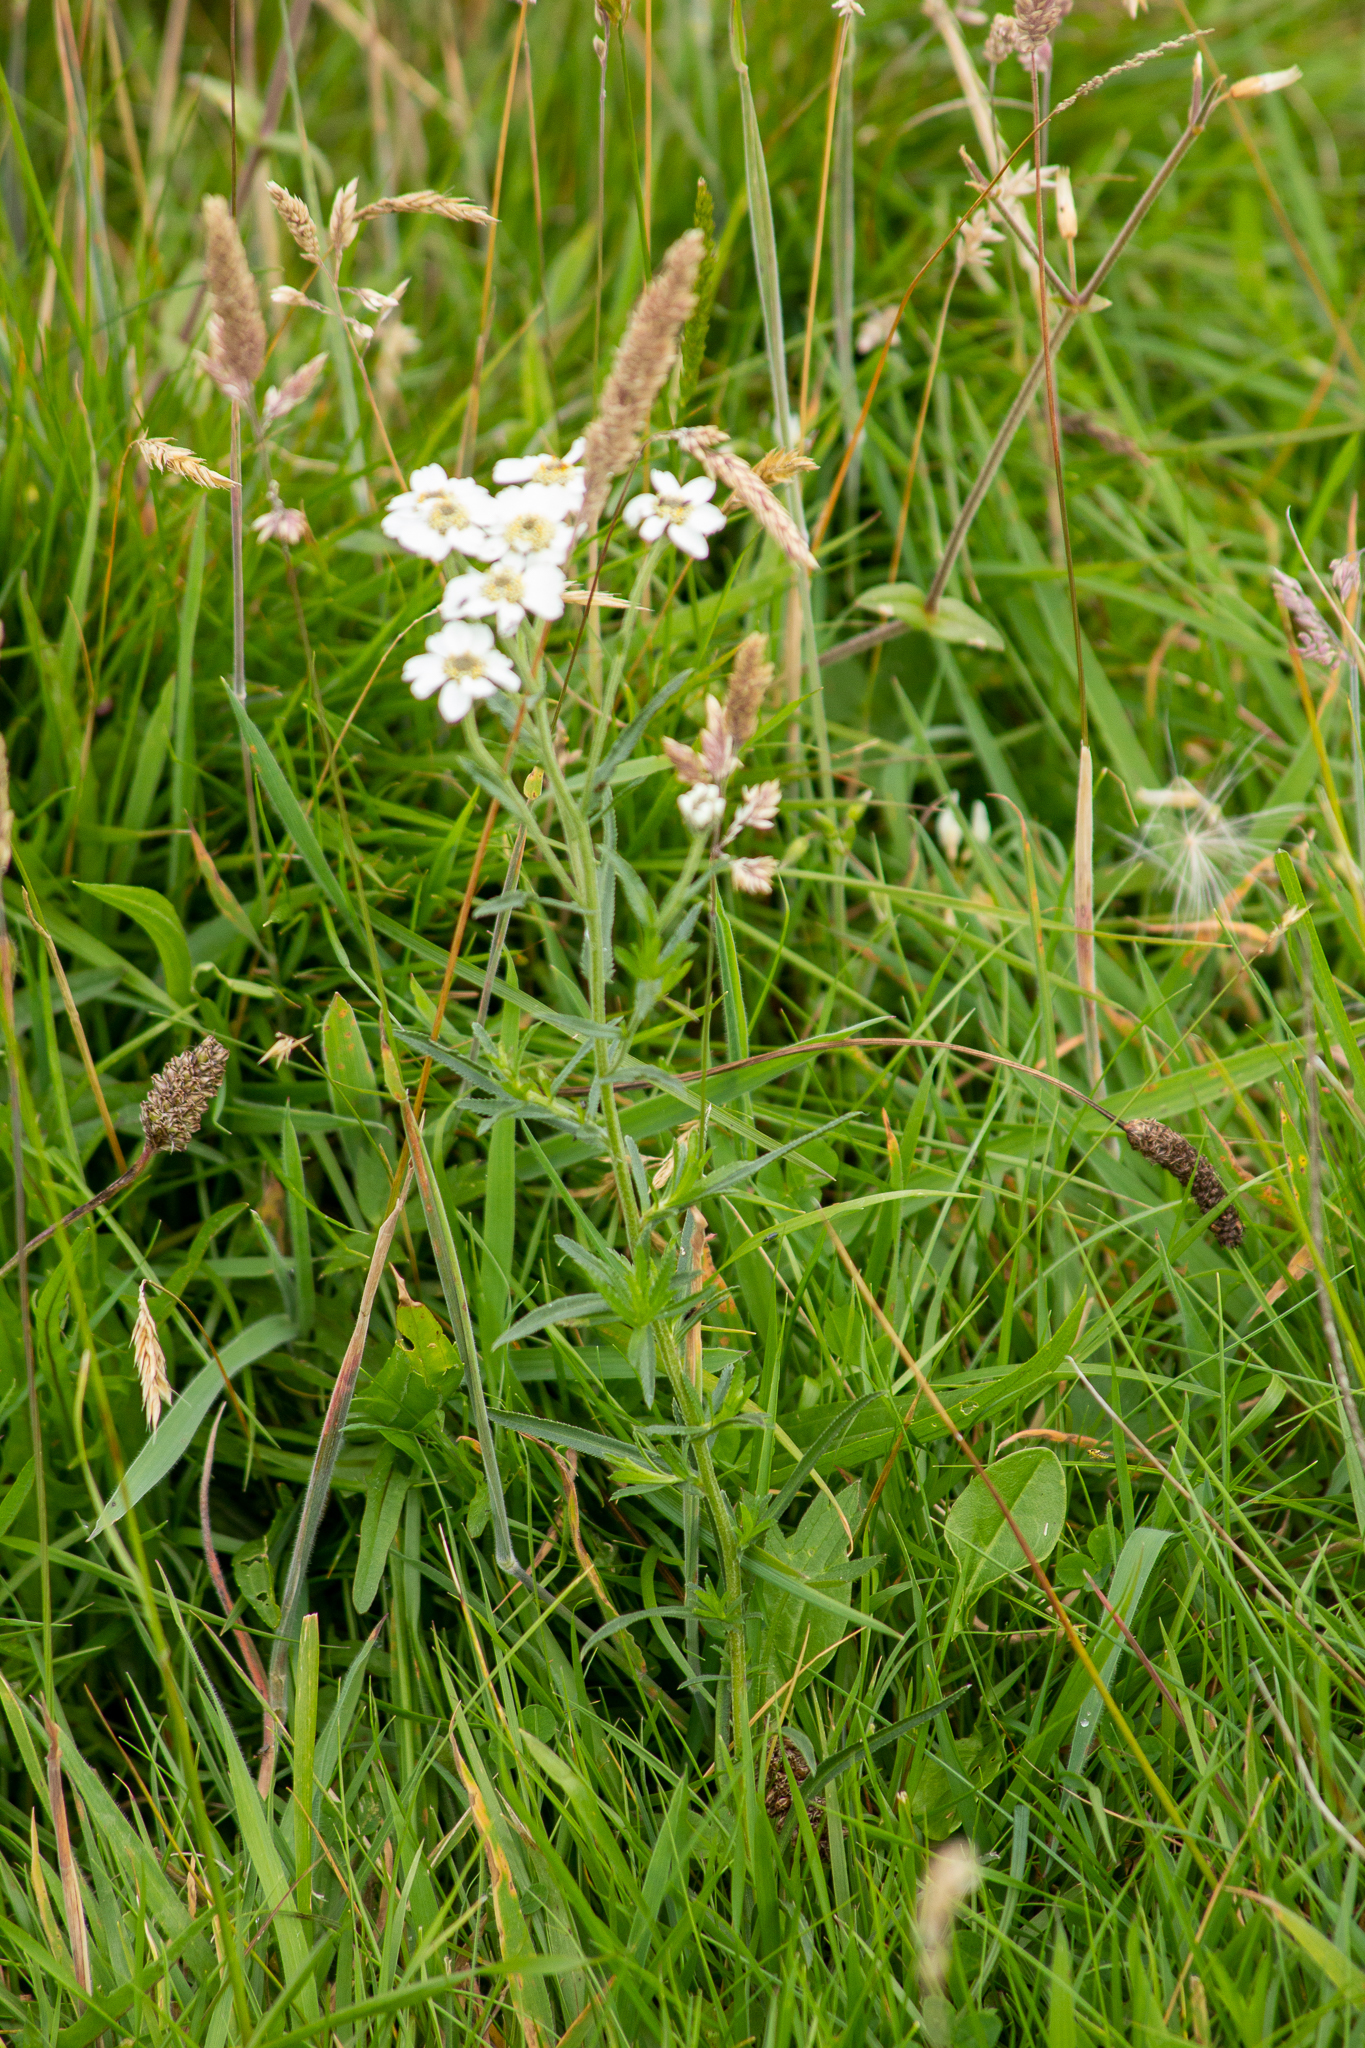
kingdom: Plantae
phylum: Tracheophyta
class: Magnoliopsida
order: Asterales
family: Asteraceae
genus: Achillea
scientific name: Achillea ptarmica
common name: Sneezeweed
